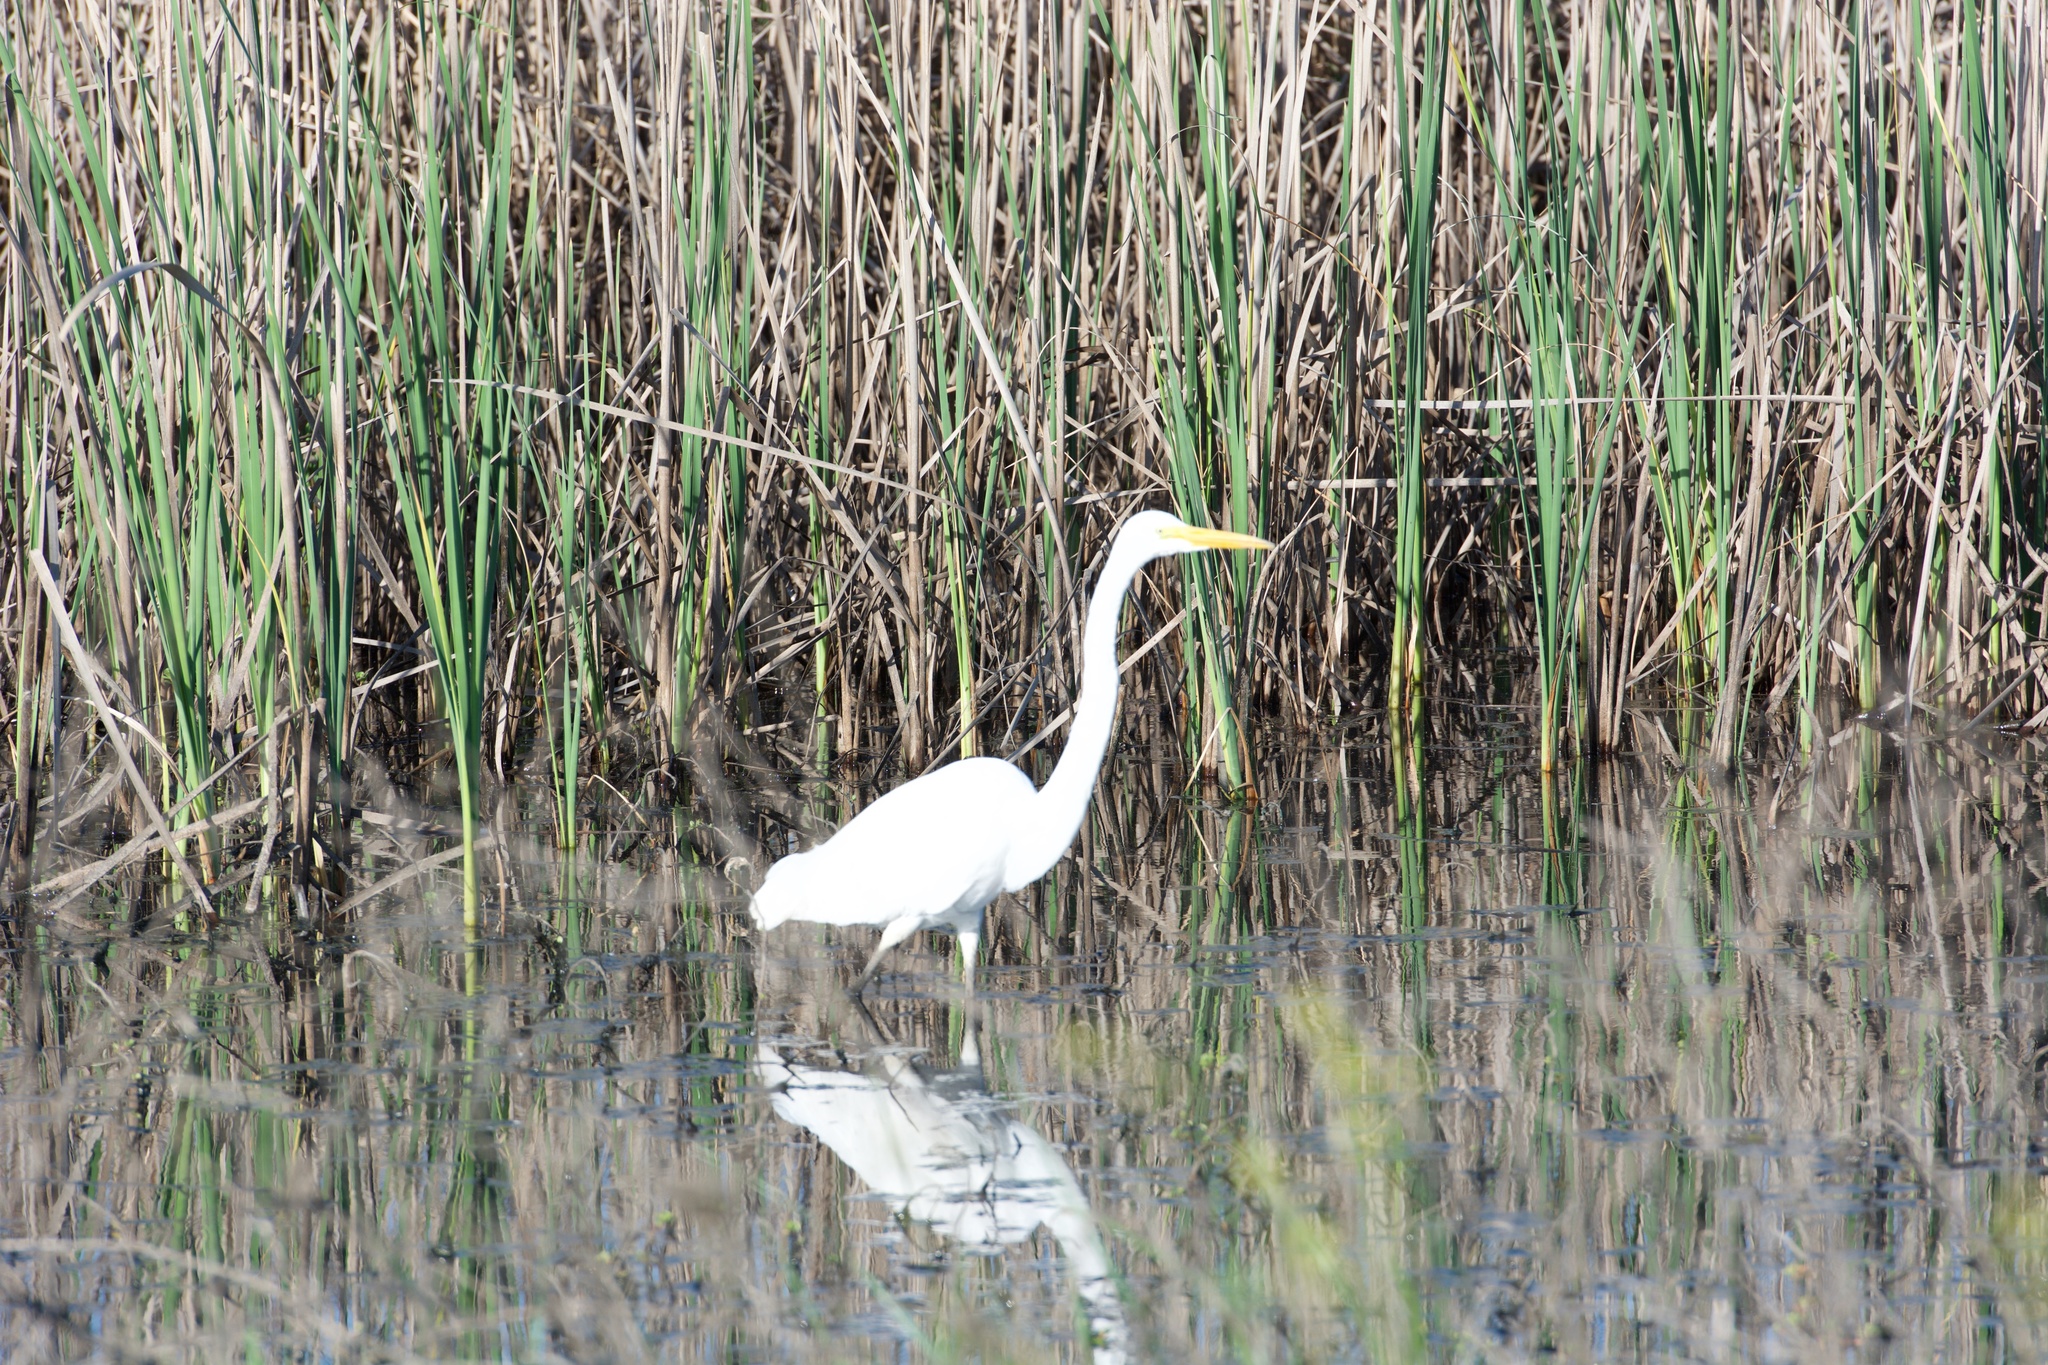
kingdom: Animalia
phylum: Chordata
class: Aves
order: Pelecaniformes
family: Ardeidae
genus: Ardea
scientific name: Ardea alba
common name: Great egret
